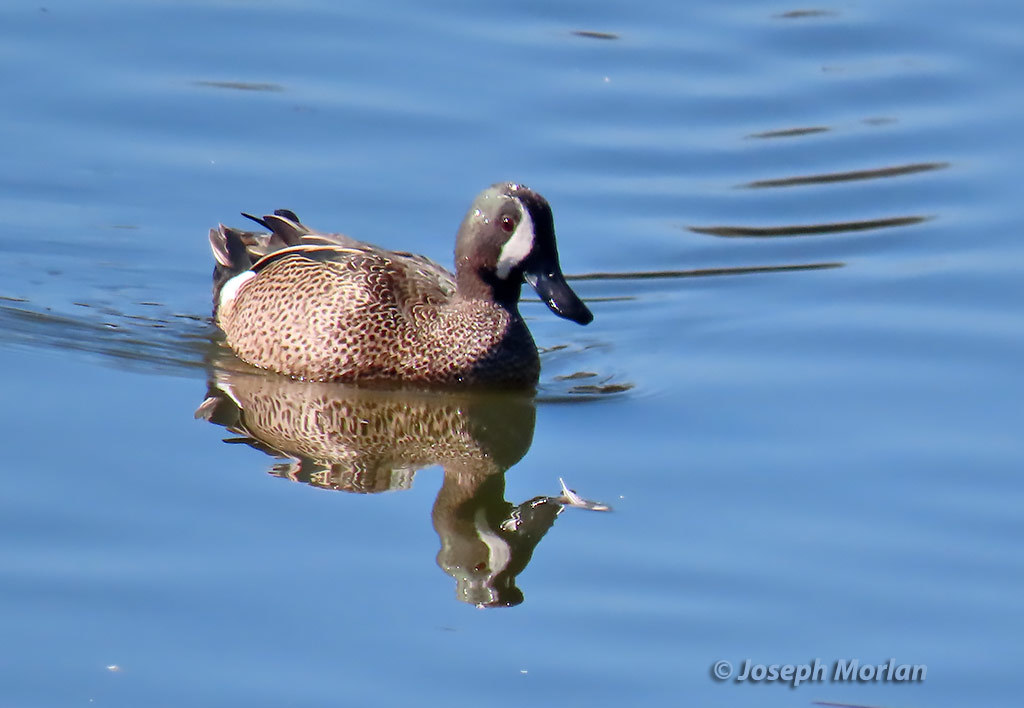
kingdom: Animalia
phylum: Chordata
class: Aves
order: Anseriformes
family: Anatidae
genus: Spatula
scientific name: Spatula discors
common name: Blue-winged teal
